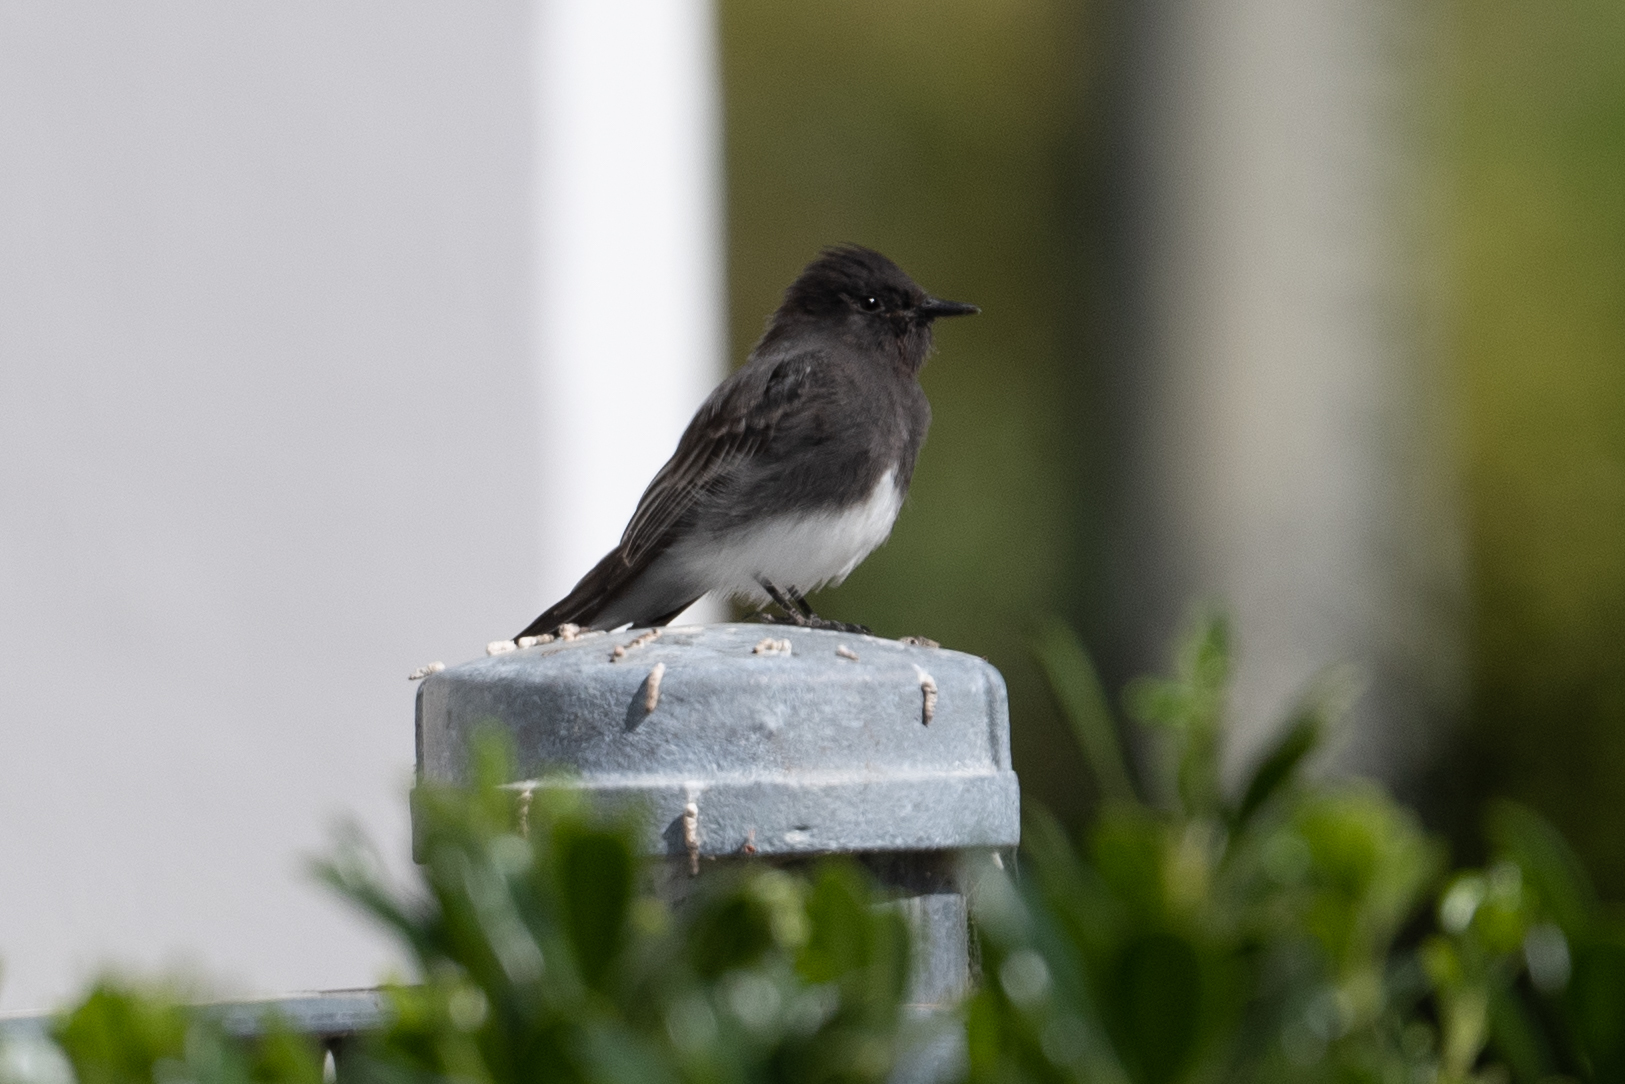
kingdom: Animalia
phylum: Chordata
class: Aves
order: Passeriformes
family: Tyrannidae
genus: Sayornis
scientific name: Sayornis nigricans
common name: Black phoebe
